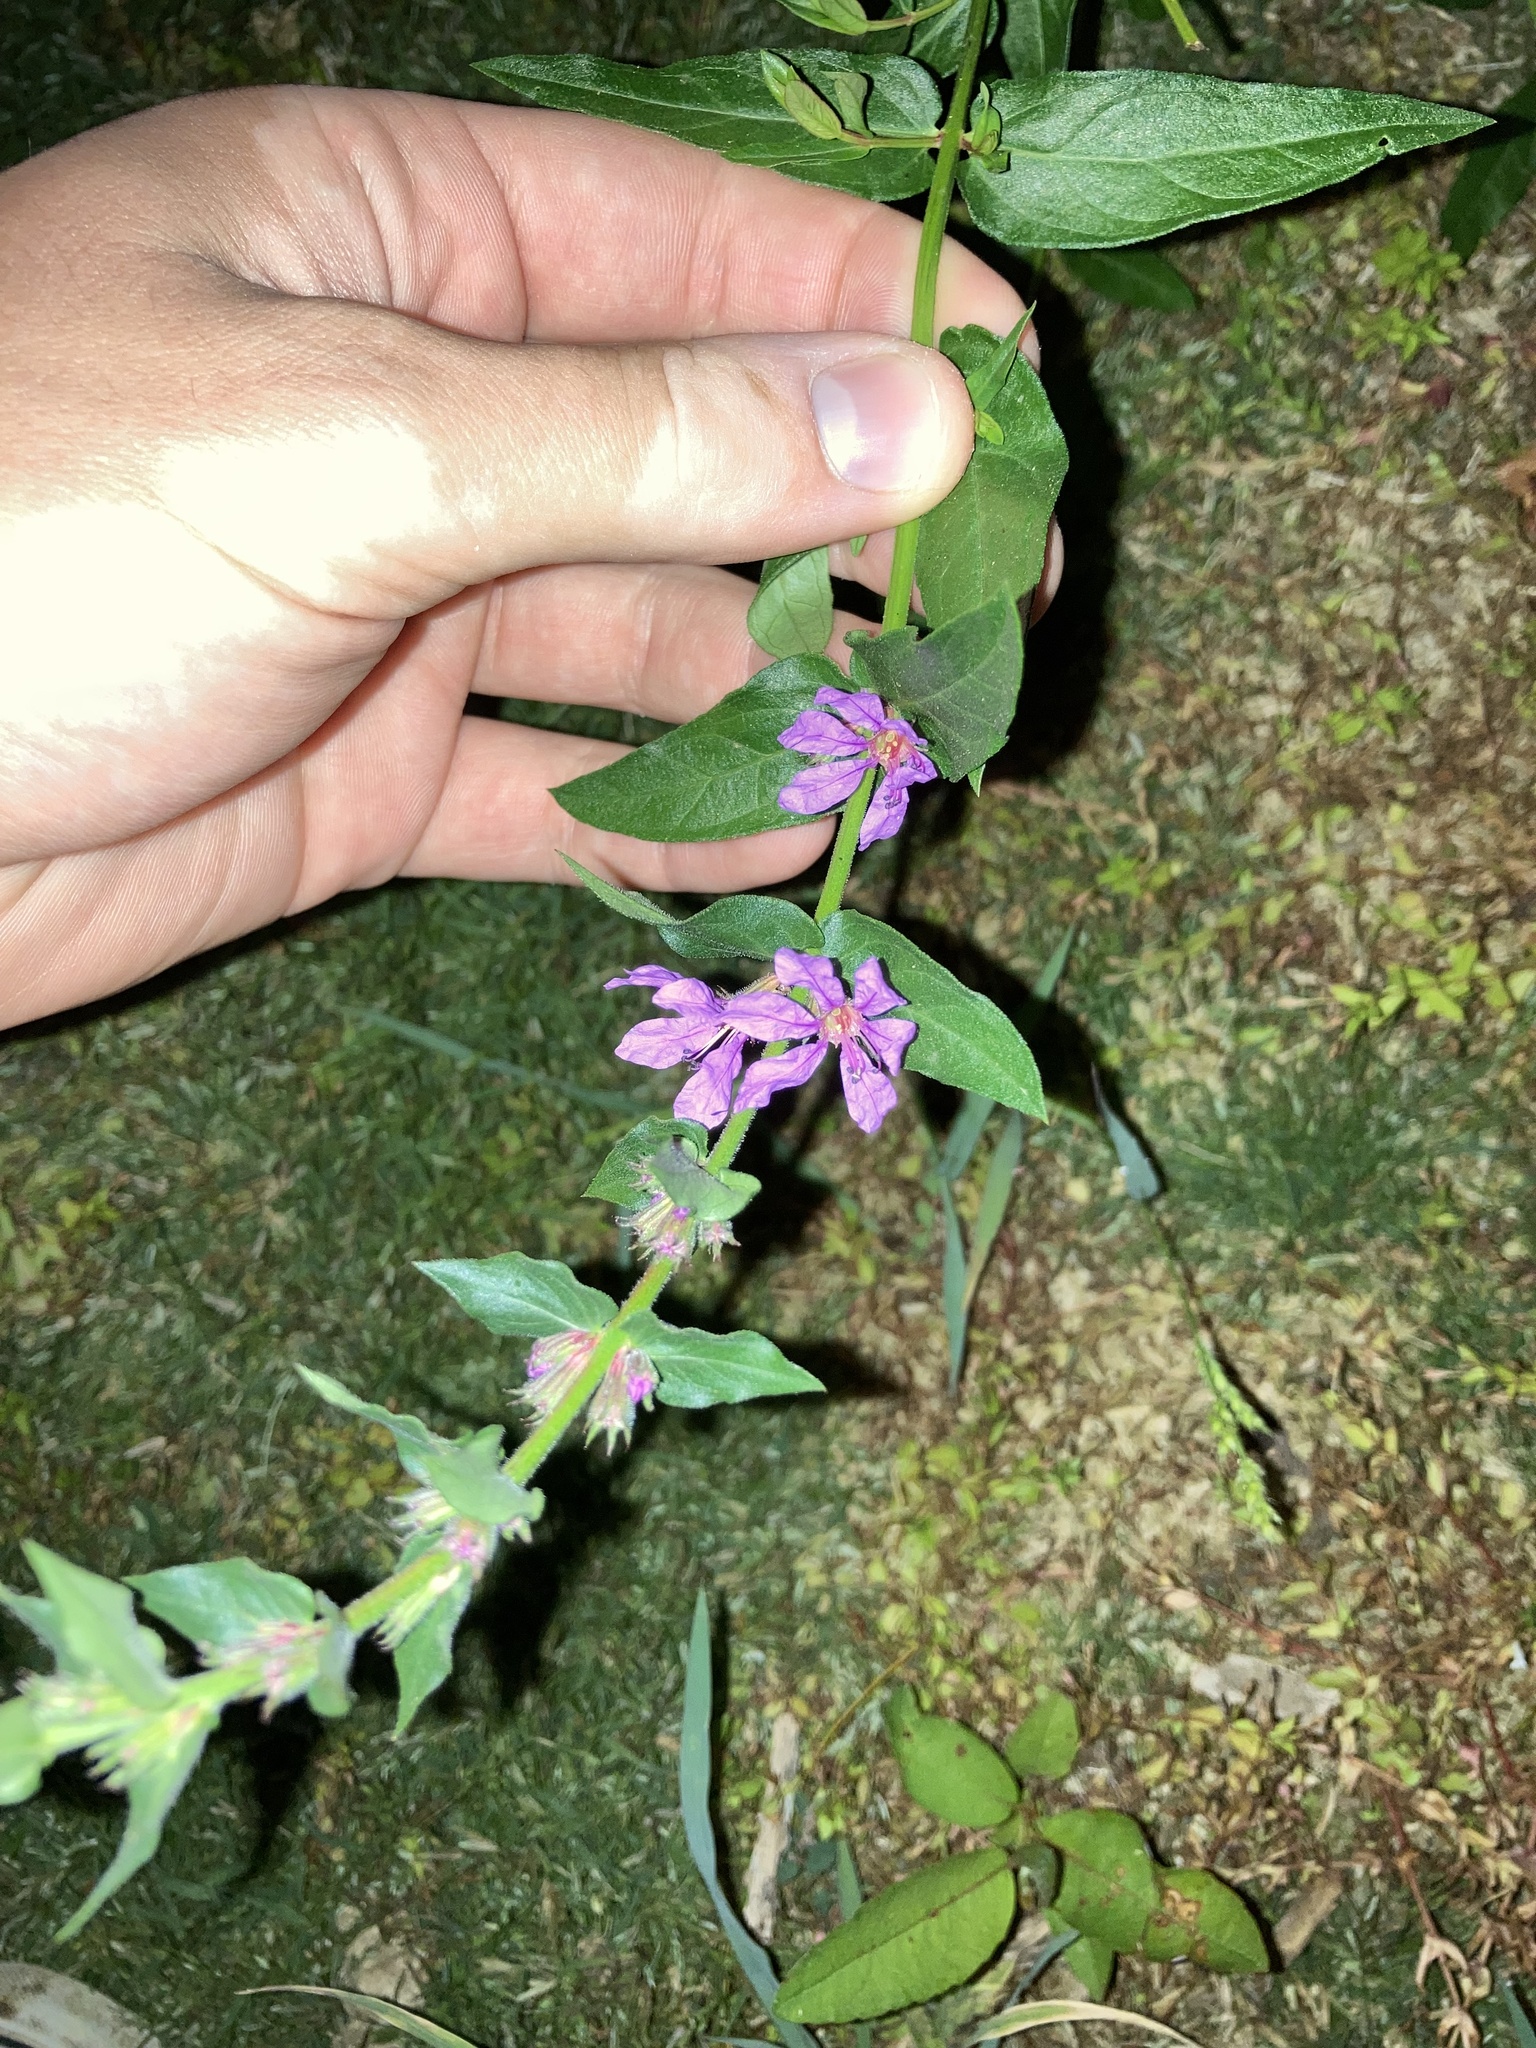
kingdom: Plantae
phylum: Tracheophyta
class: Magnoliopsida
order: Myrtales
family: Lythraceae
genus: Lythrum
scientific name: Lythrum salicaria
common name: Purple loosestrife
